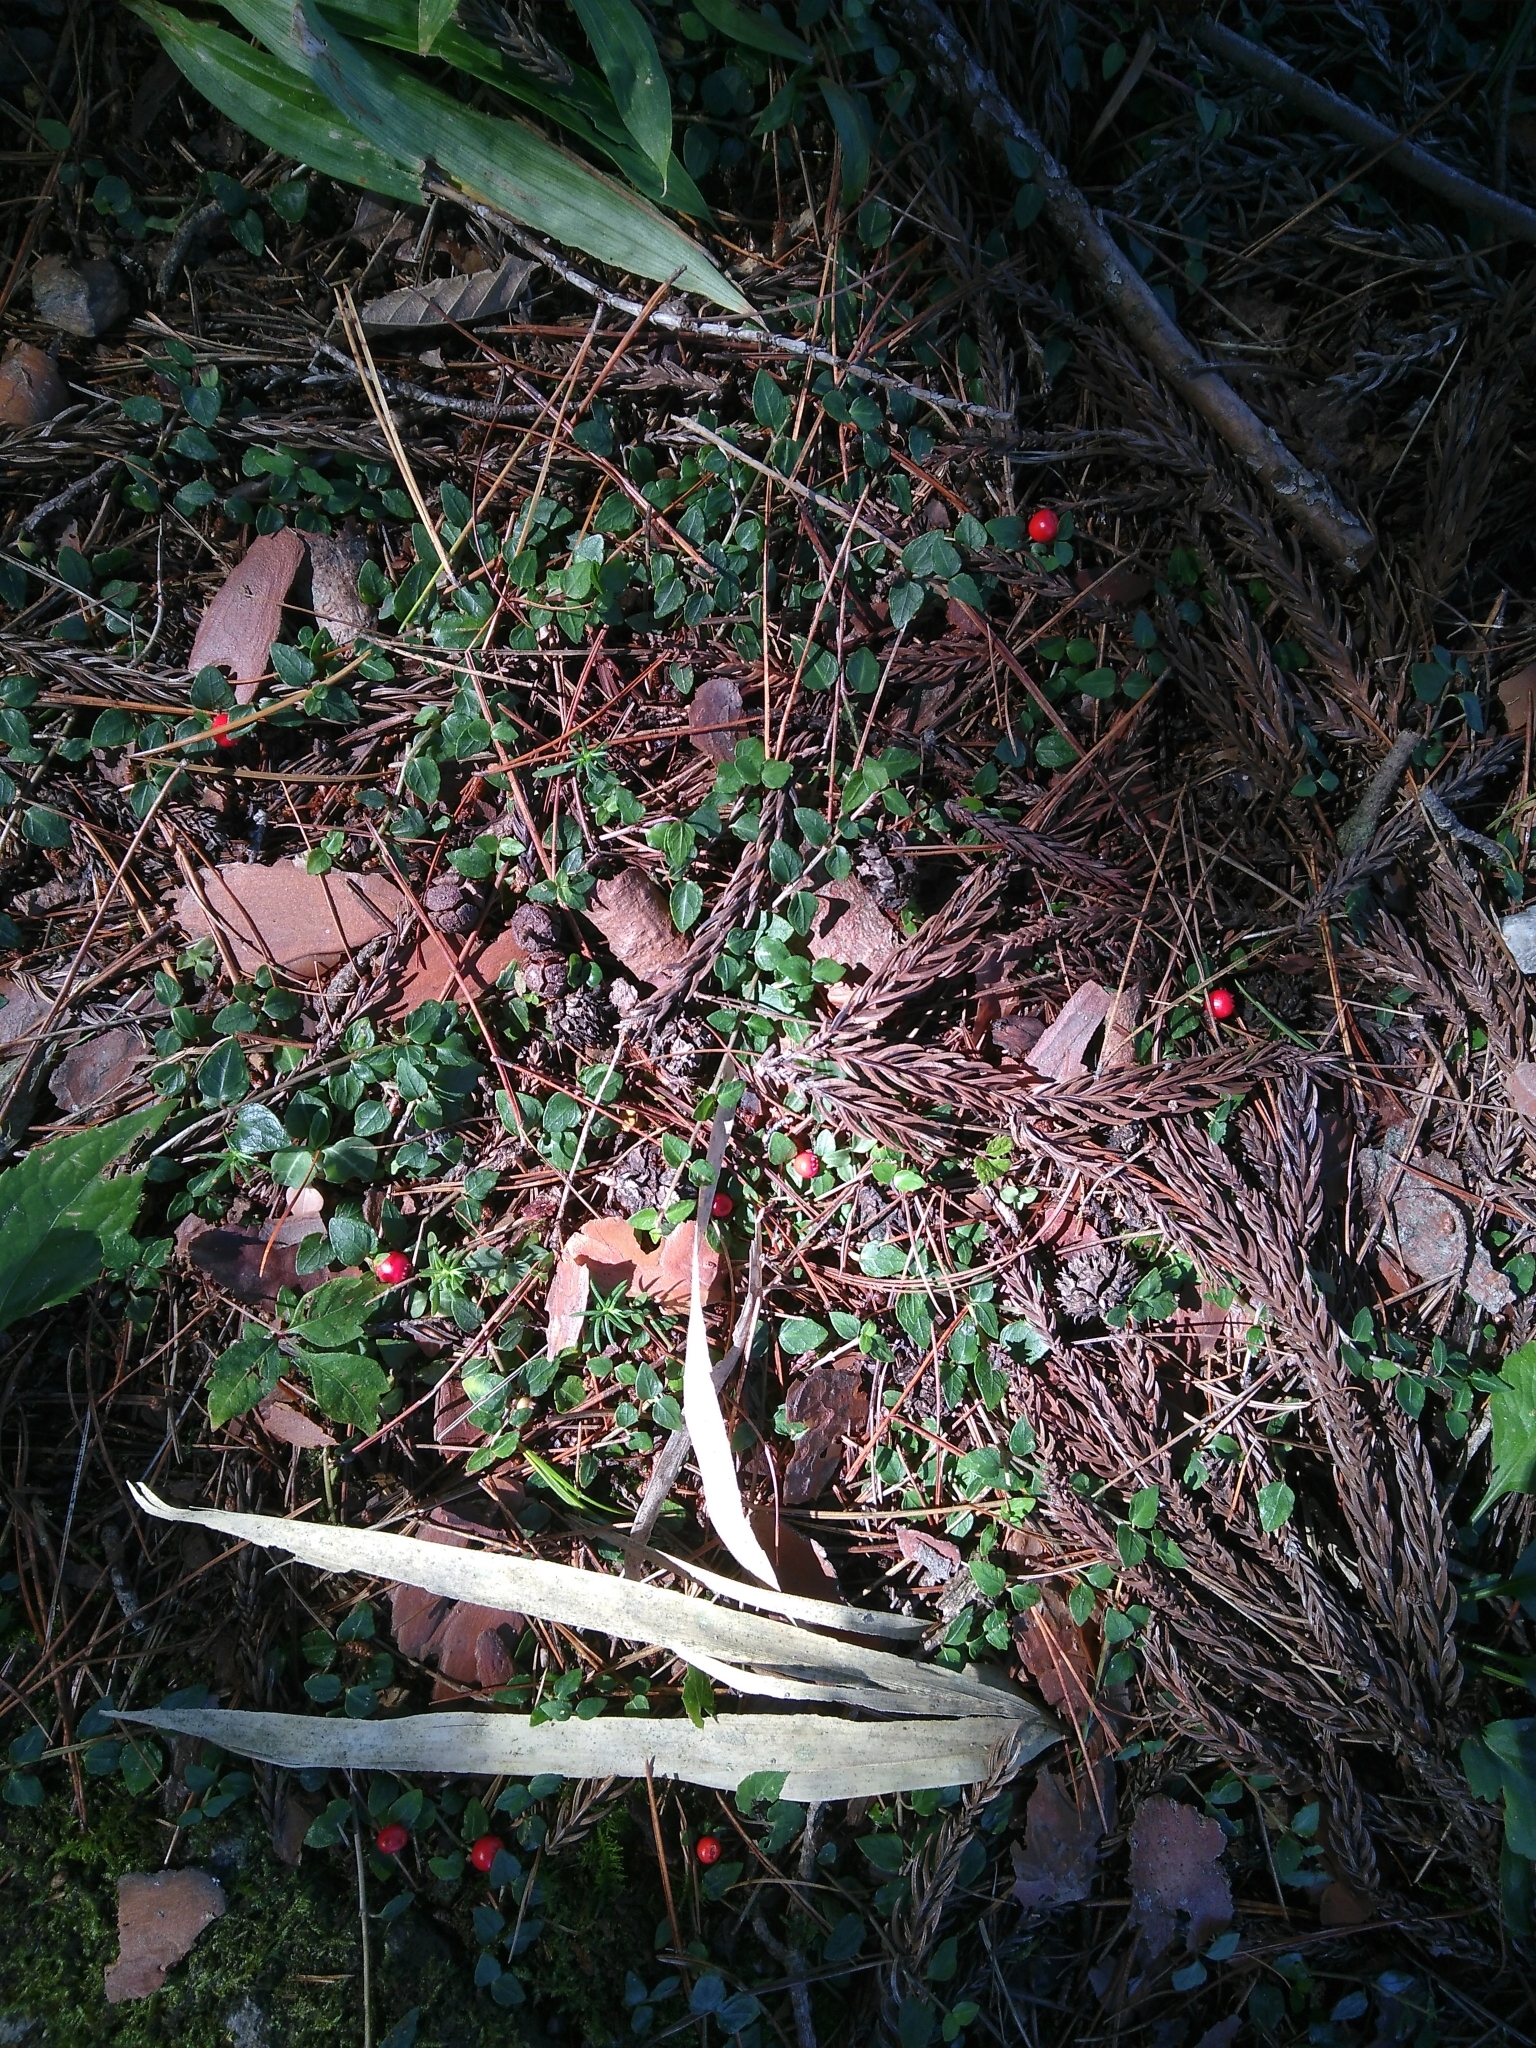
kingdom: Plantae
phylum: Tracheophyta
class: Magnoliopsida
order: Gentianales
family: Rubiaceae
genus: Mitchella
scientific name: Mitchella undulata
